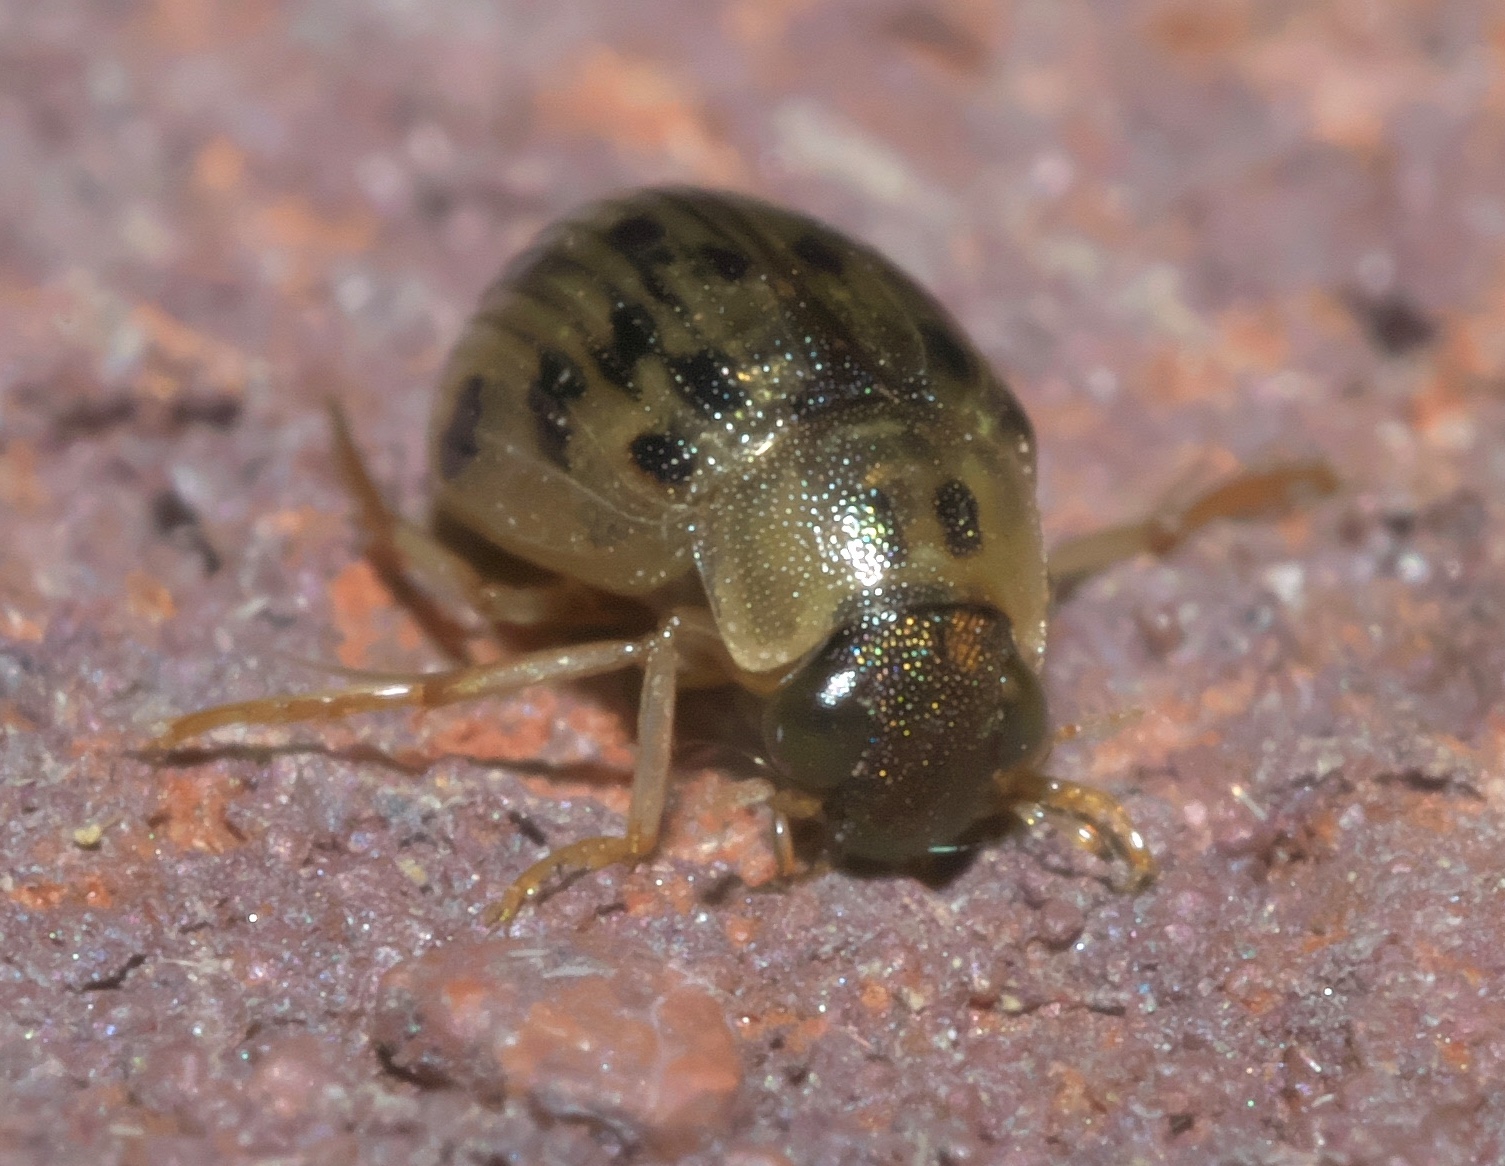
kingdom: Animalia
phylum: Arthropoda
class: Insecta
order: Coleoptera
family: Hydrophilidae
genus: Berosus
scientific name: Berosus pantherinus
